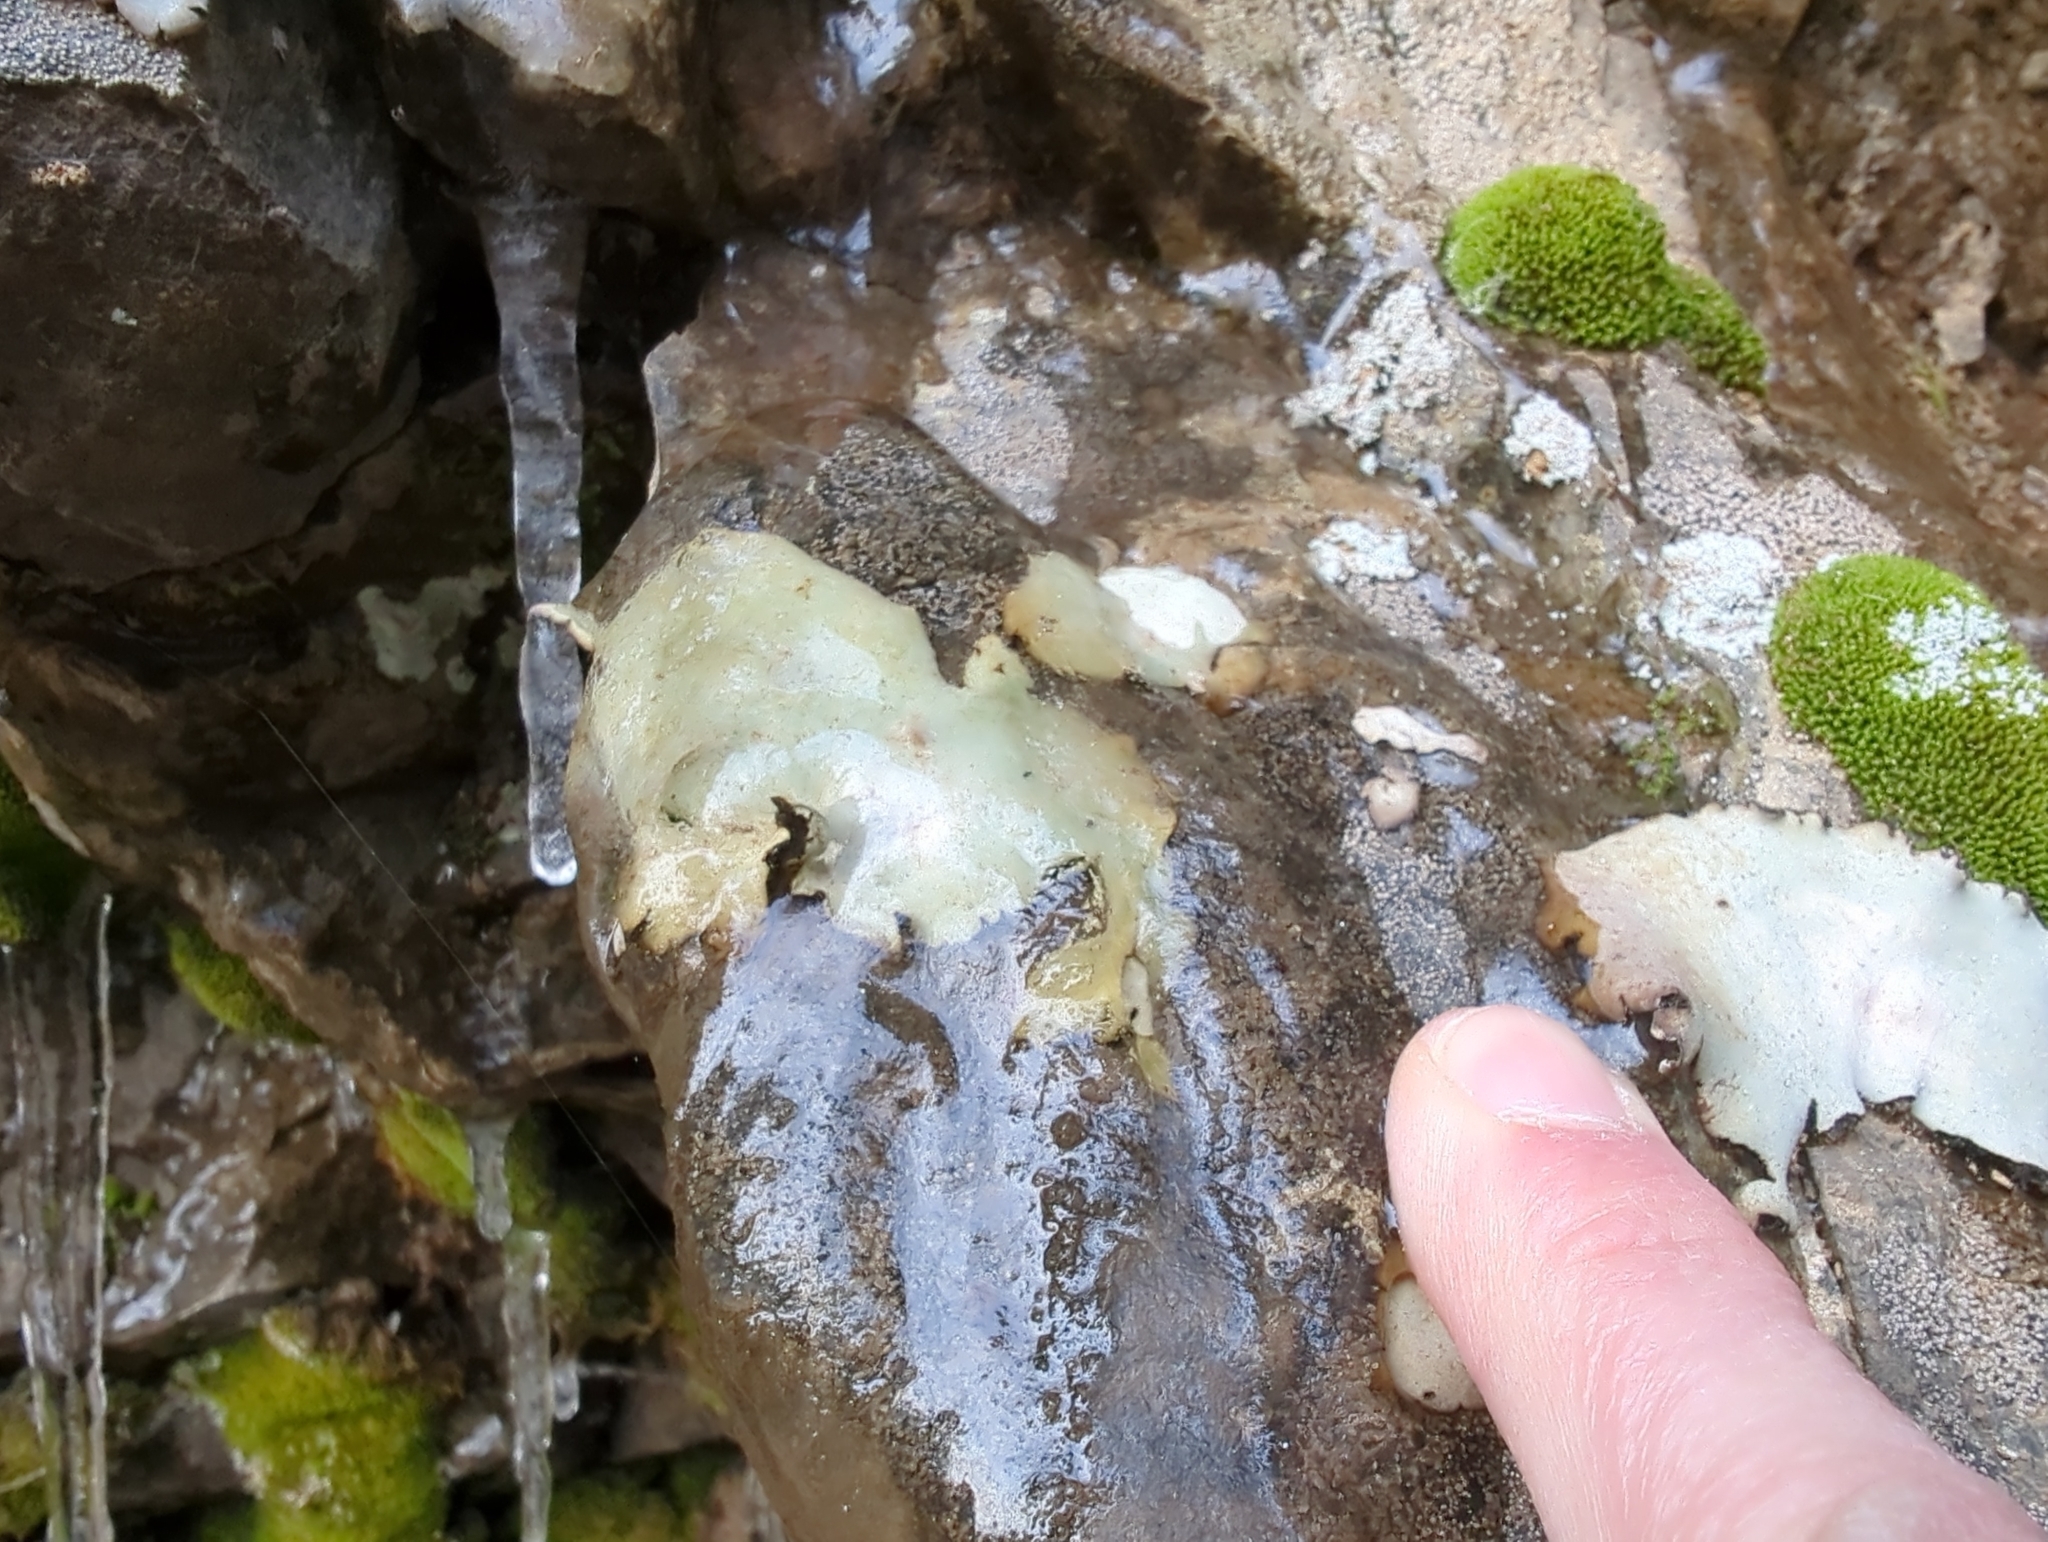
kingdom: Fungi
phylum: Ascomycota
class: Lecanoromycetes
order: Umbilicariales
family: Umbilicariaceae
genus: Umbilicaria
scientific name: Umbilicaria americana
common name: Frosted rock tripe
